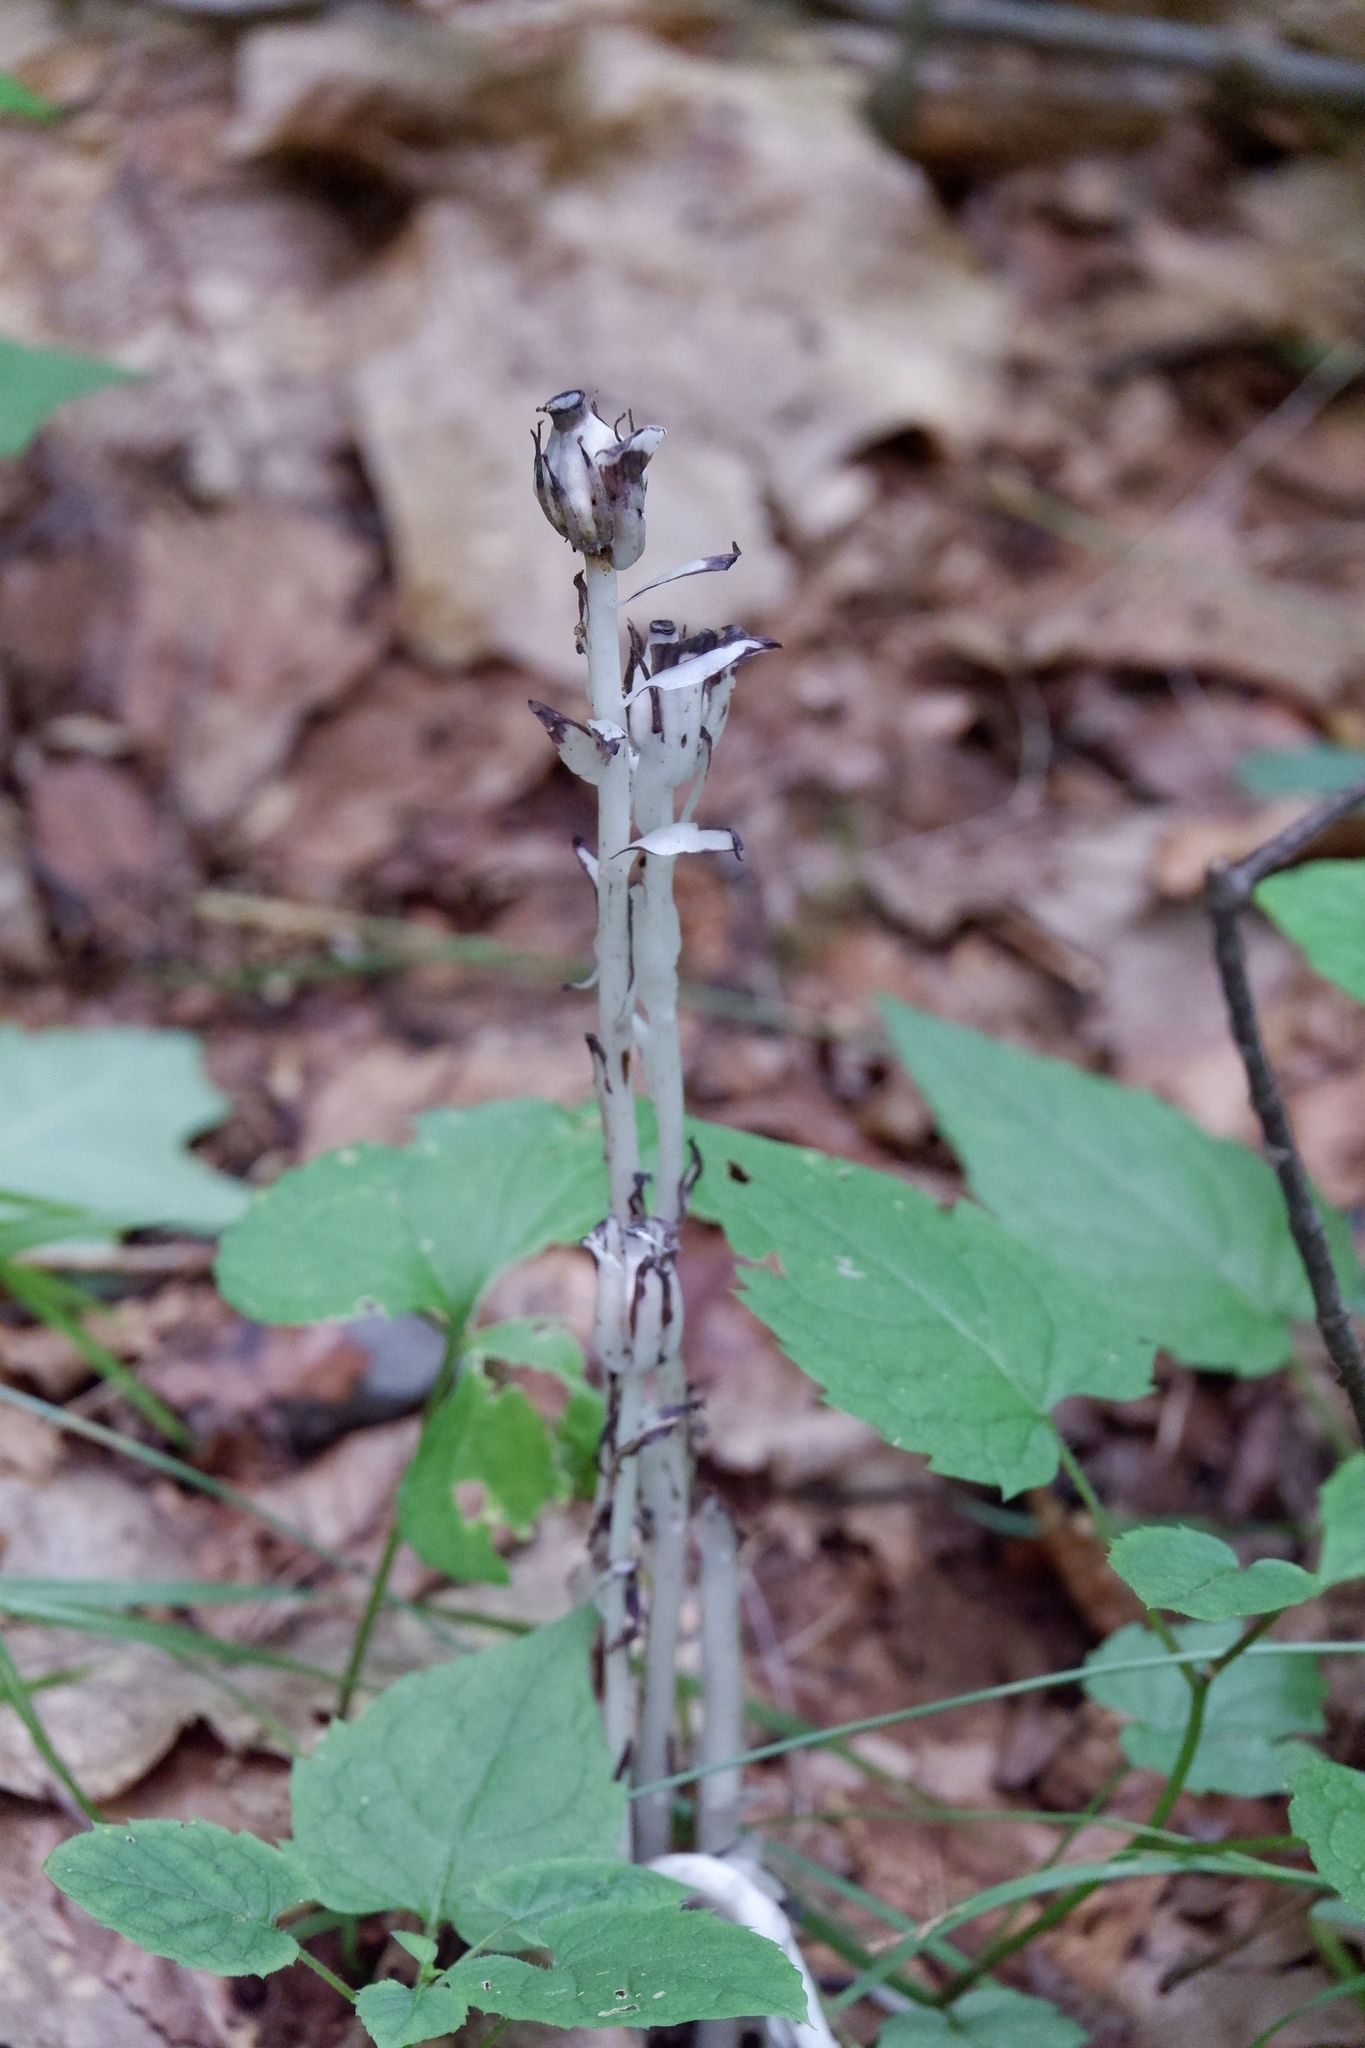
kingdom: Plantae
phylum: Tracheophyta
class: Magnoliopsida
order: Ericales
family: Ericaceae
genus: Monotropa
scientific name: Monotropa uniflora
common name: Convulsion root
